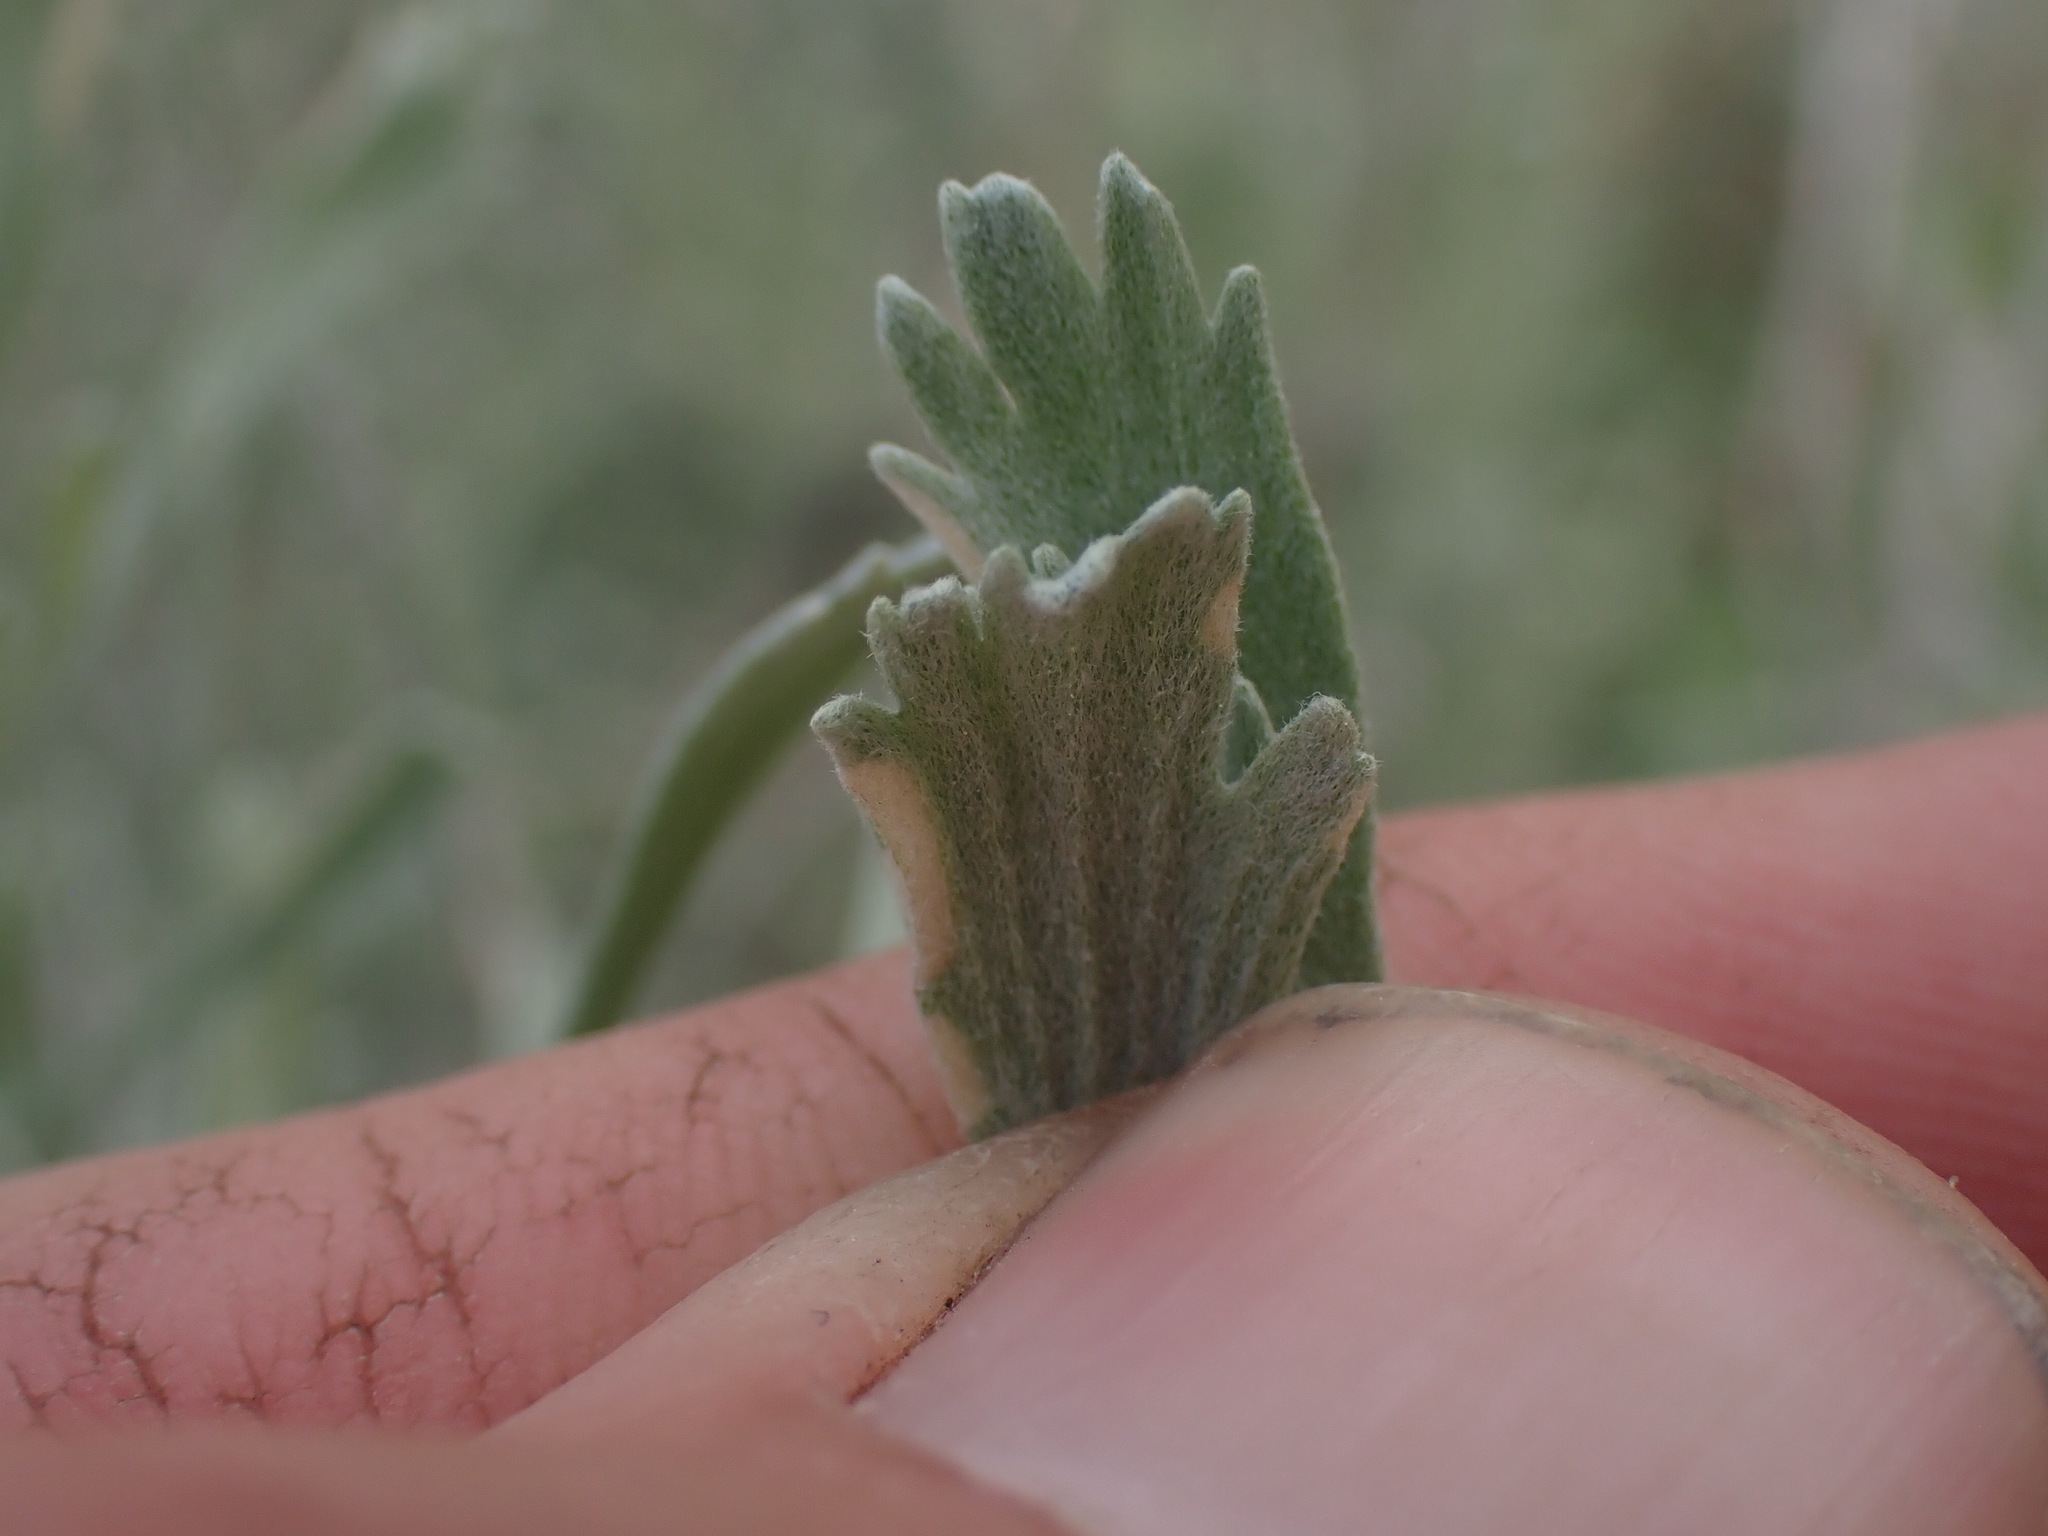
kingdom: Plantae
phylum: Tracheophyta
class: Magnoliopsida
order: Asterales
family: Asteraceae
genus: Artemisia
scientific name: Artemisia tridentata
